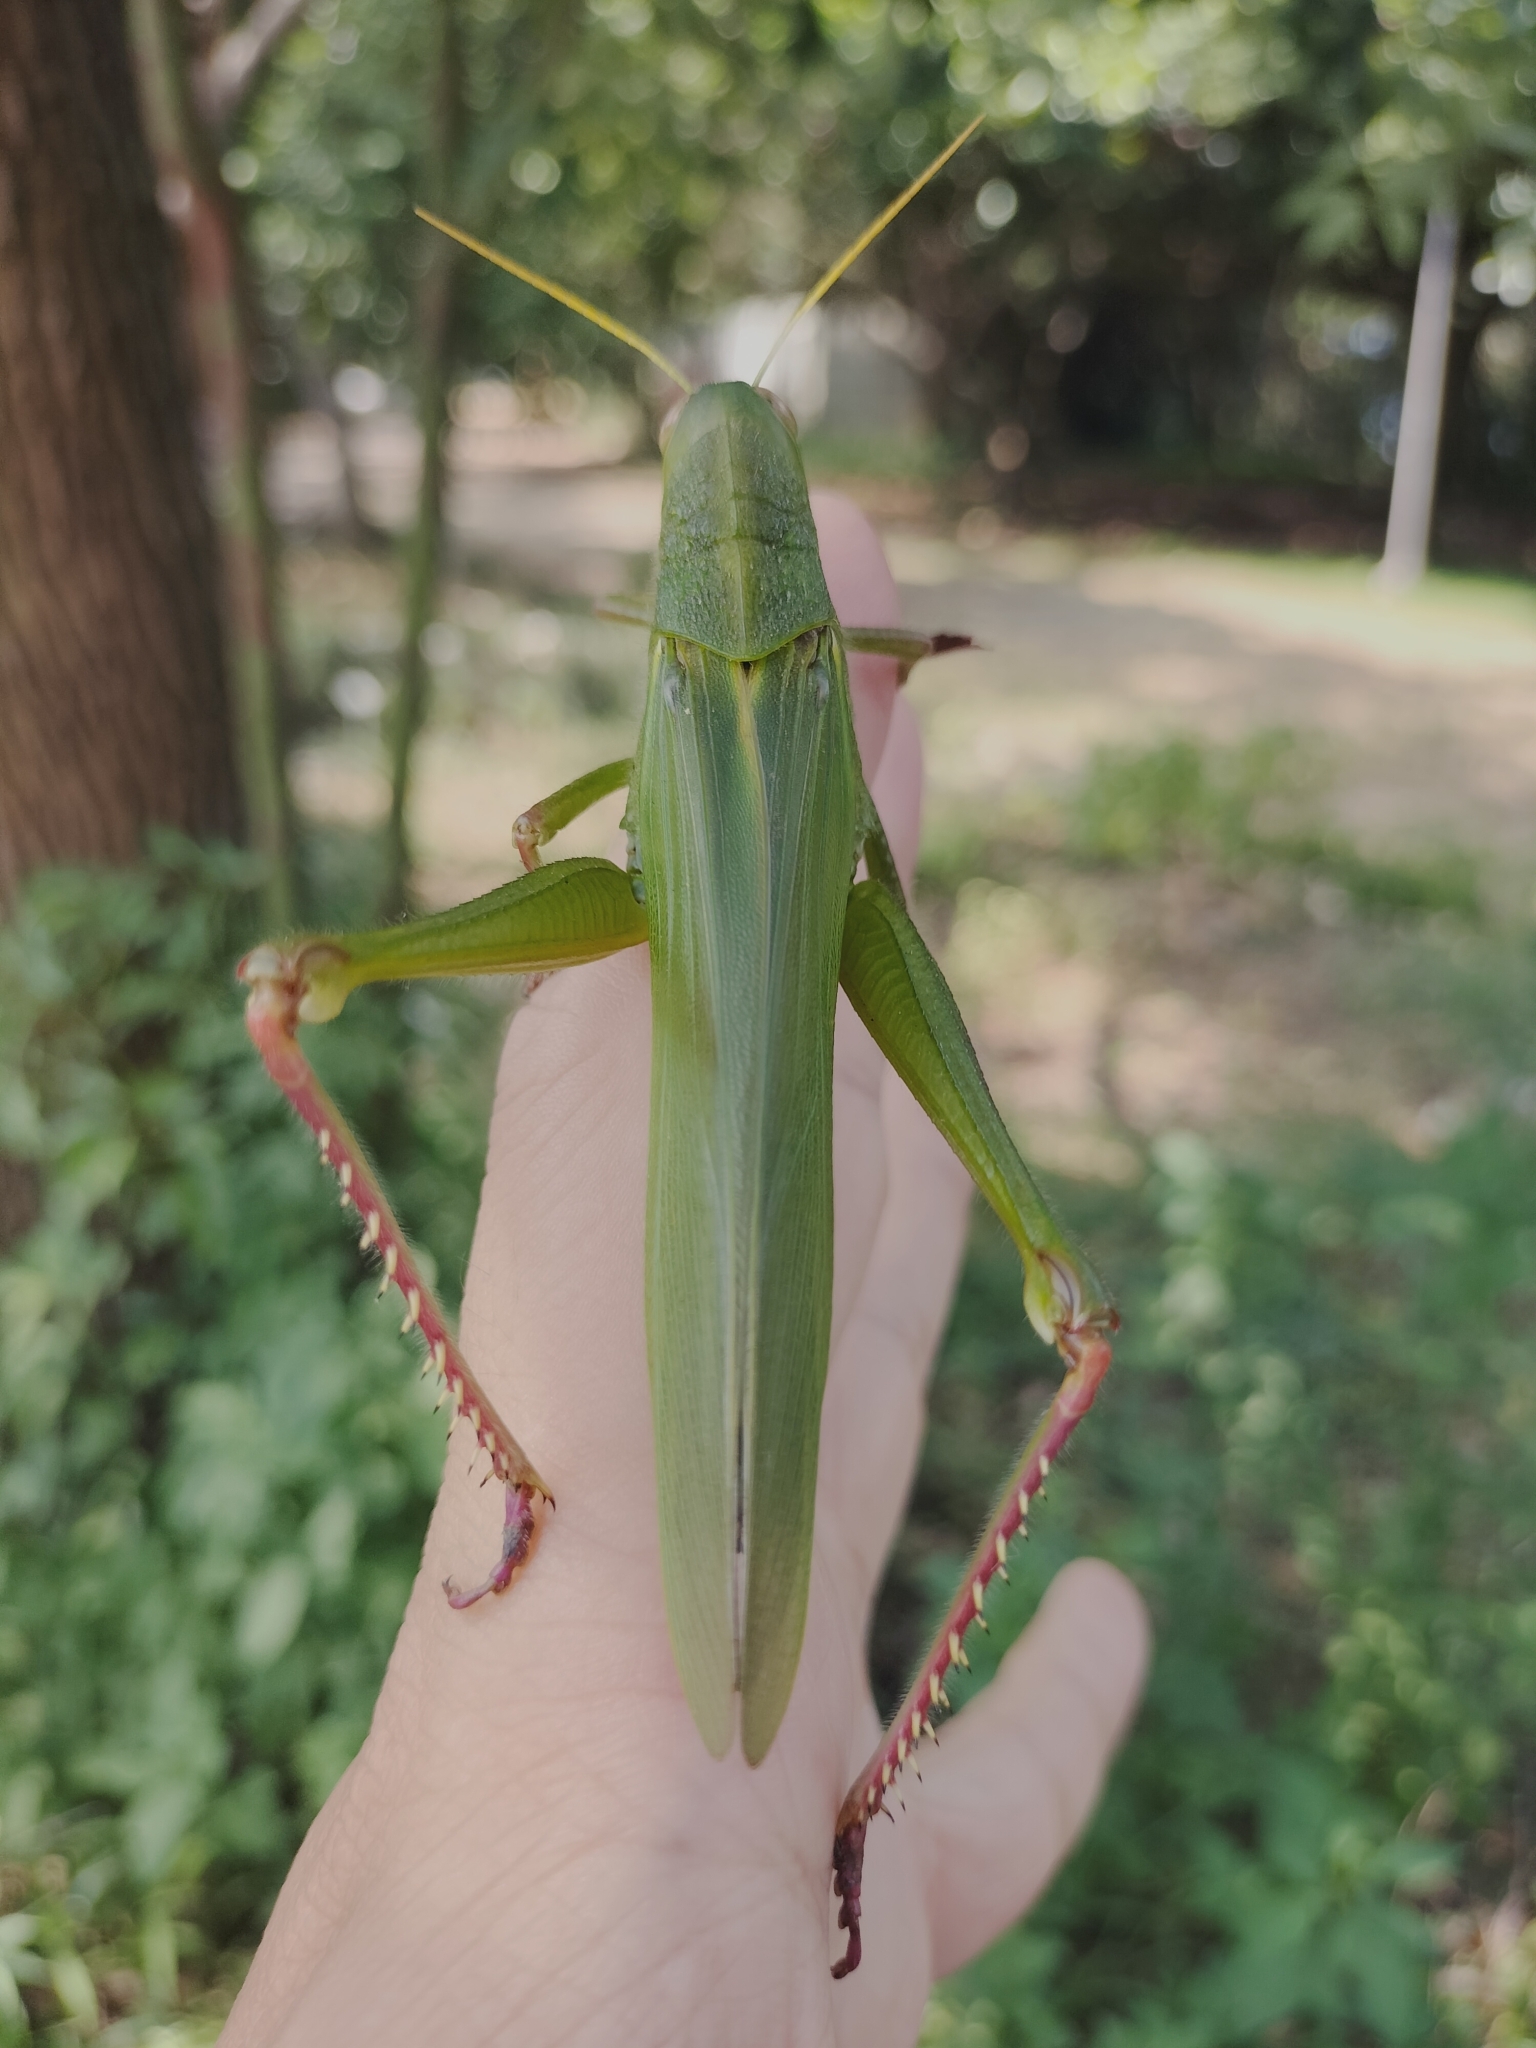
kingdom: Animalia
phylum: Arthropoda
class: Insecta
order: Orthoptera
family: Acrididae
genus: Chondracris
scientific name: Chondracris rosea
